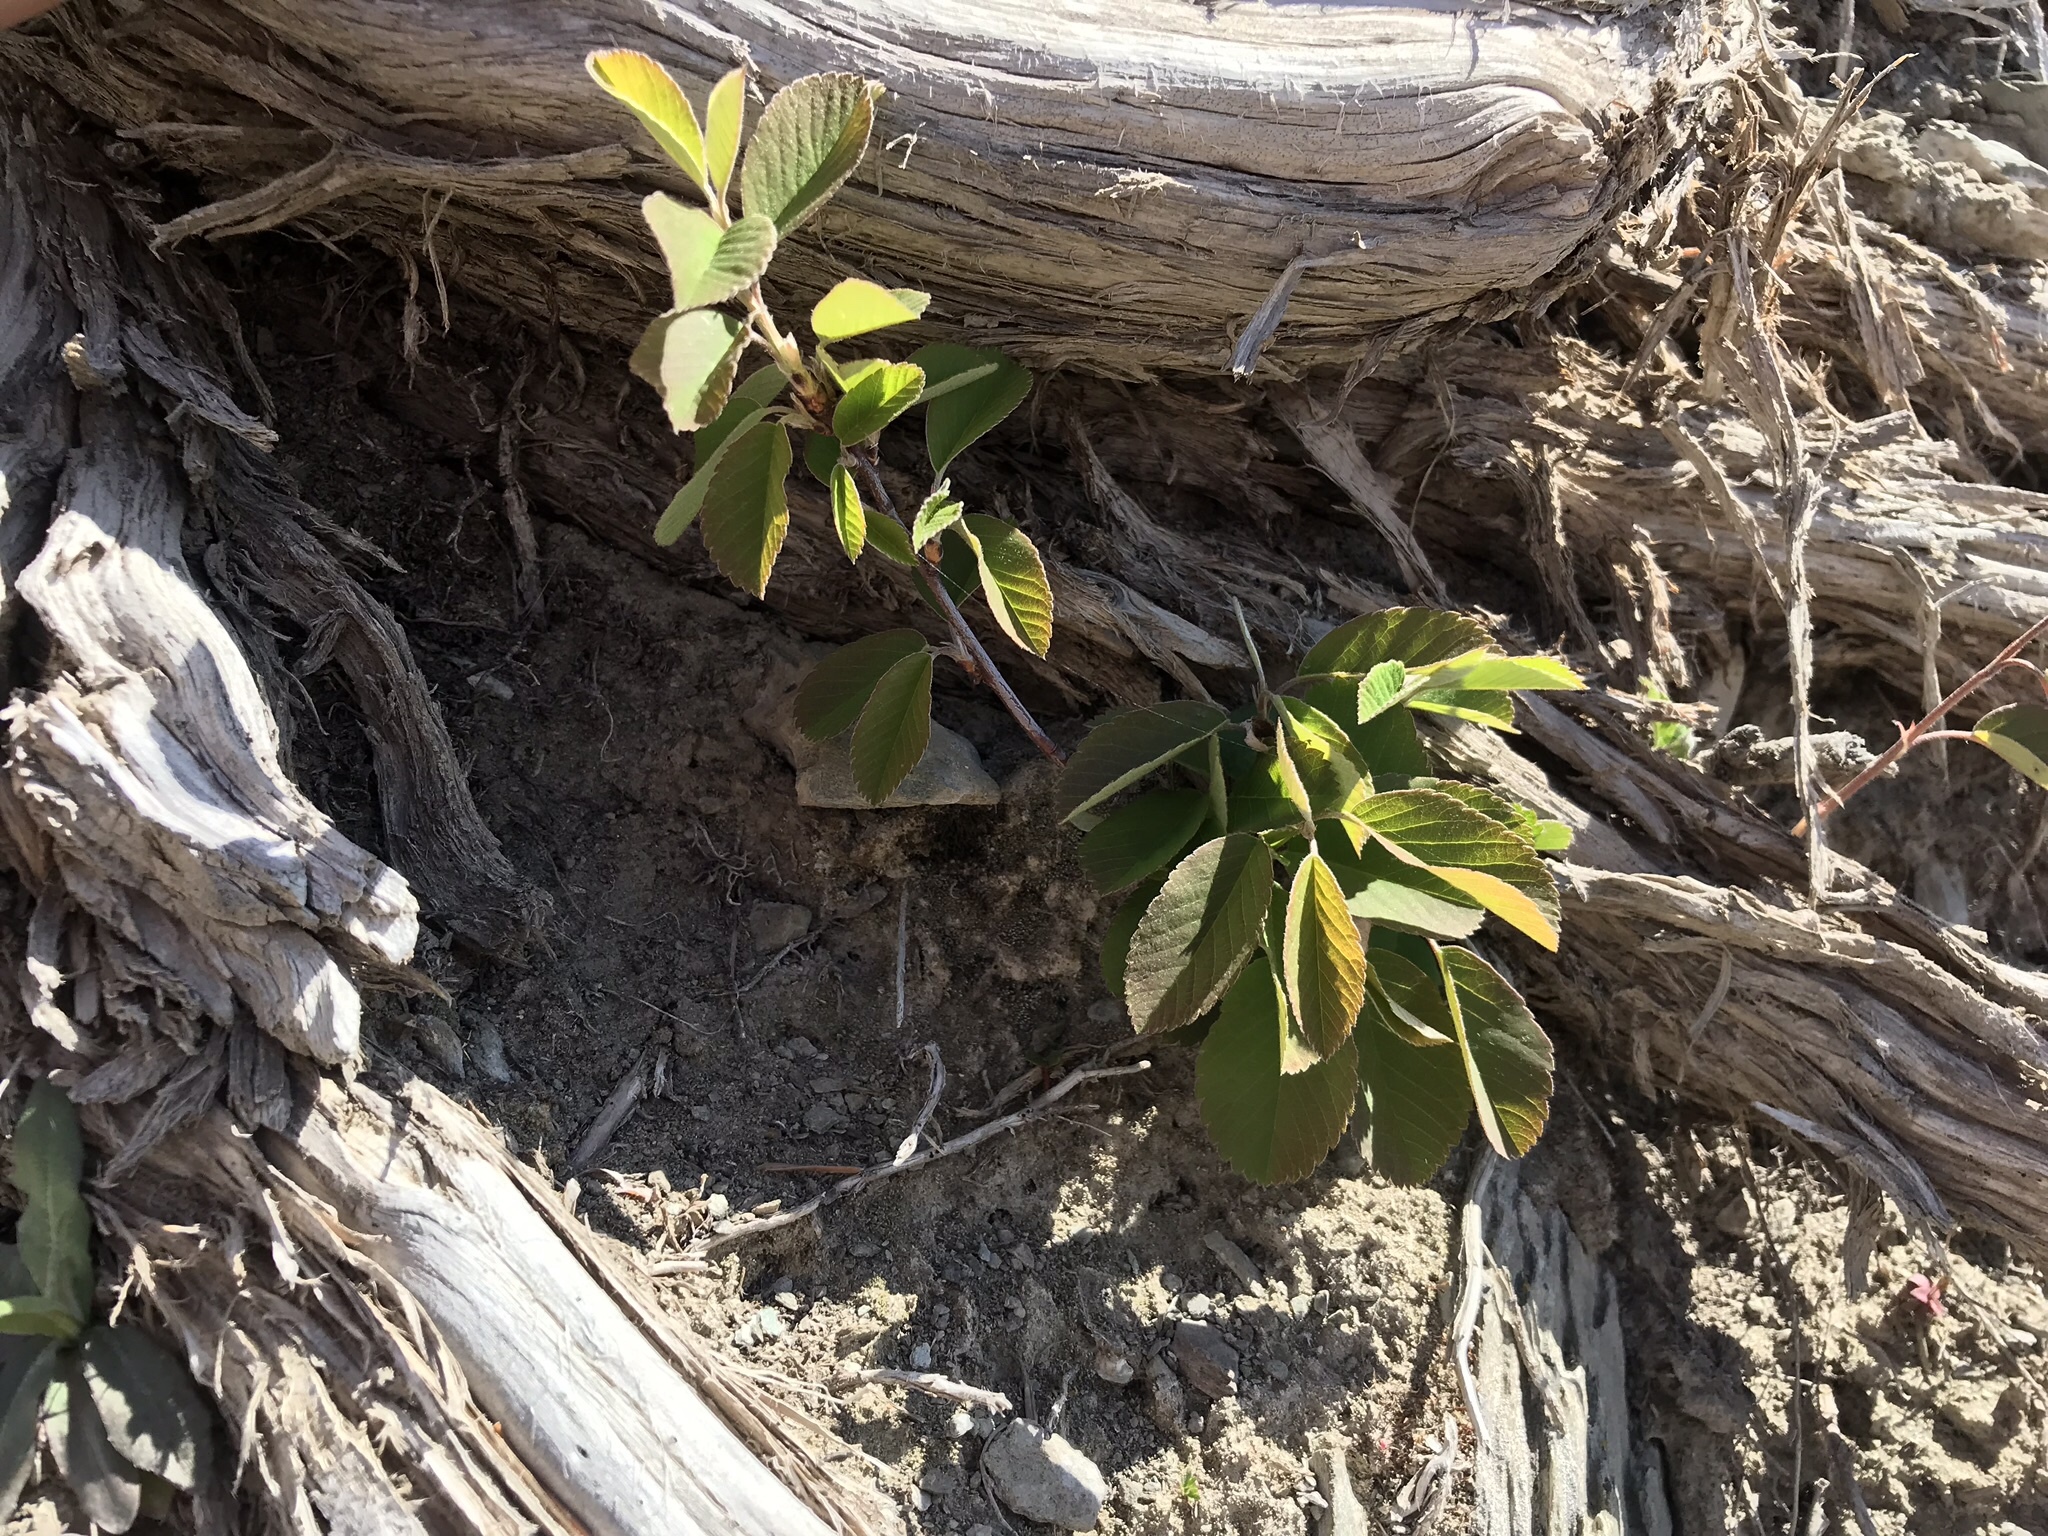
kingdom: Plantae
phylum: Tracheophyta
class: Magnoliopsida
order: Rosales
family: Rosaceae
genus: Amelanchier
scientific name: Amelanchier alnifolia
